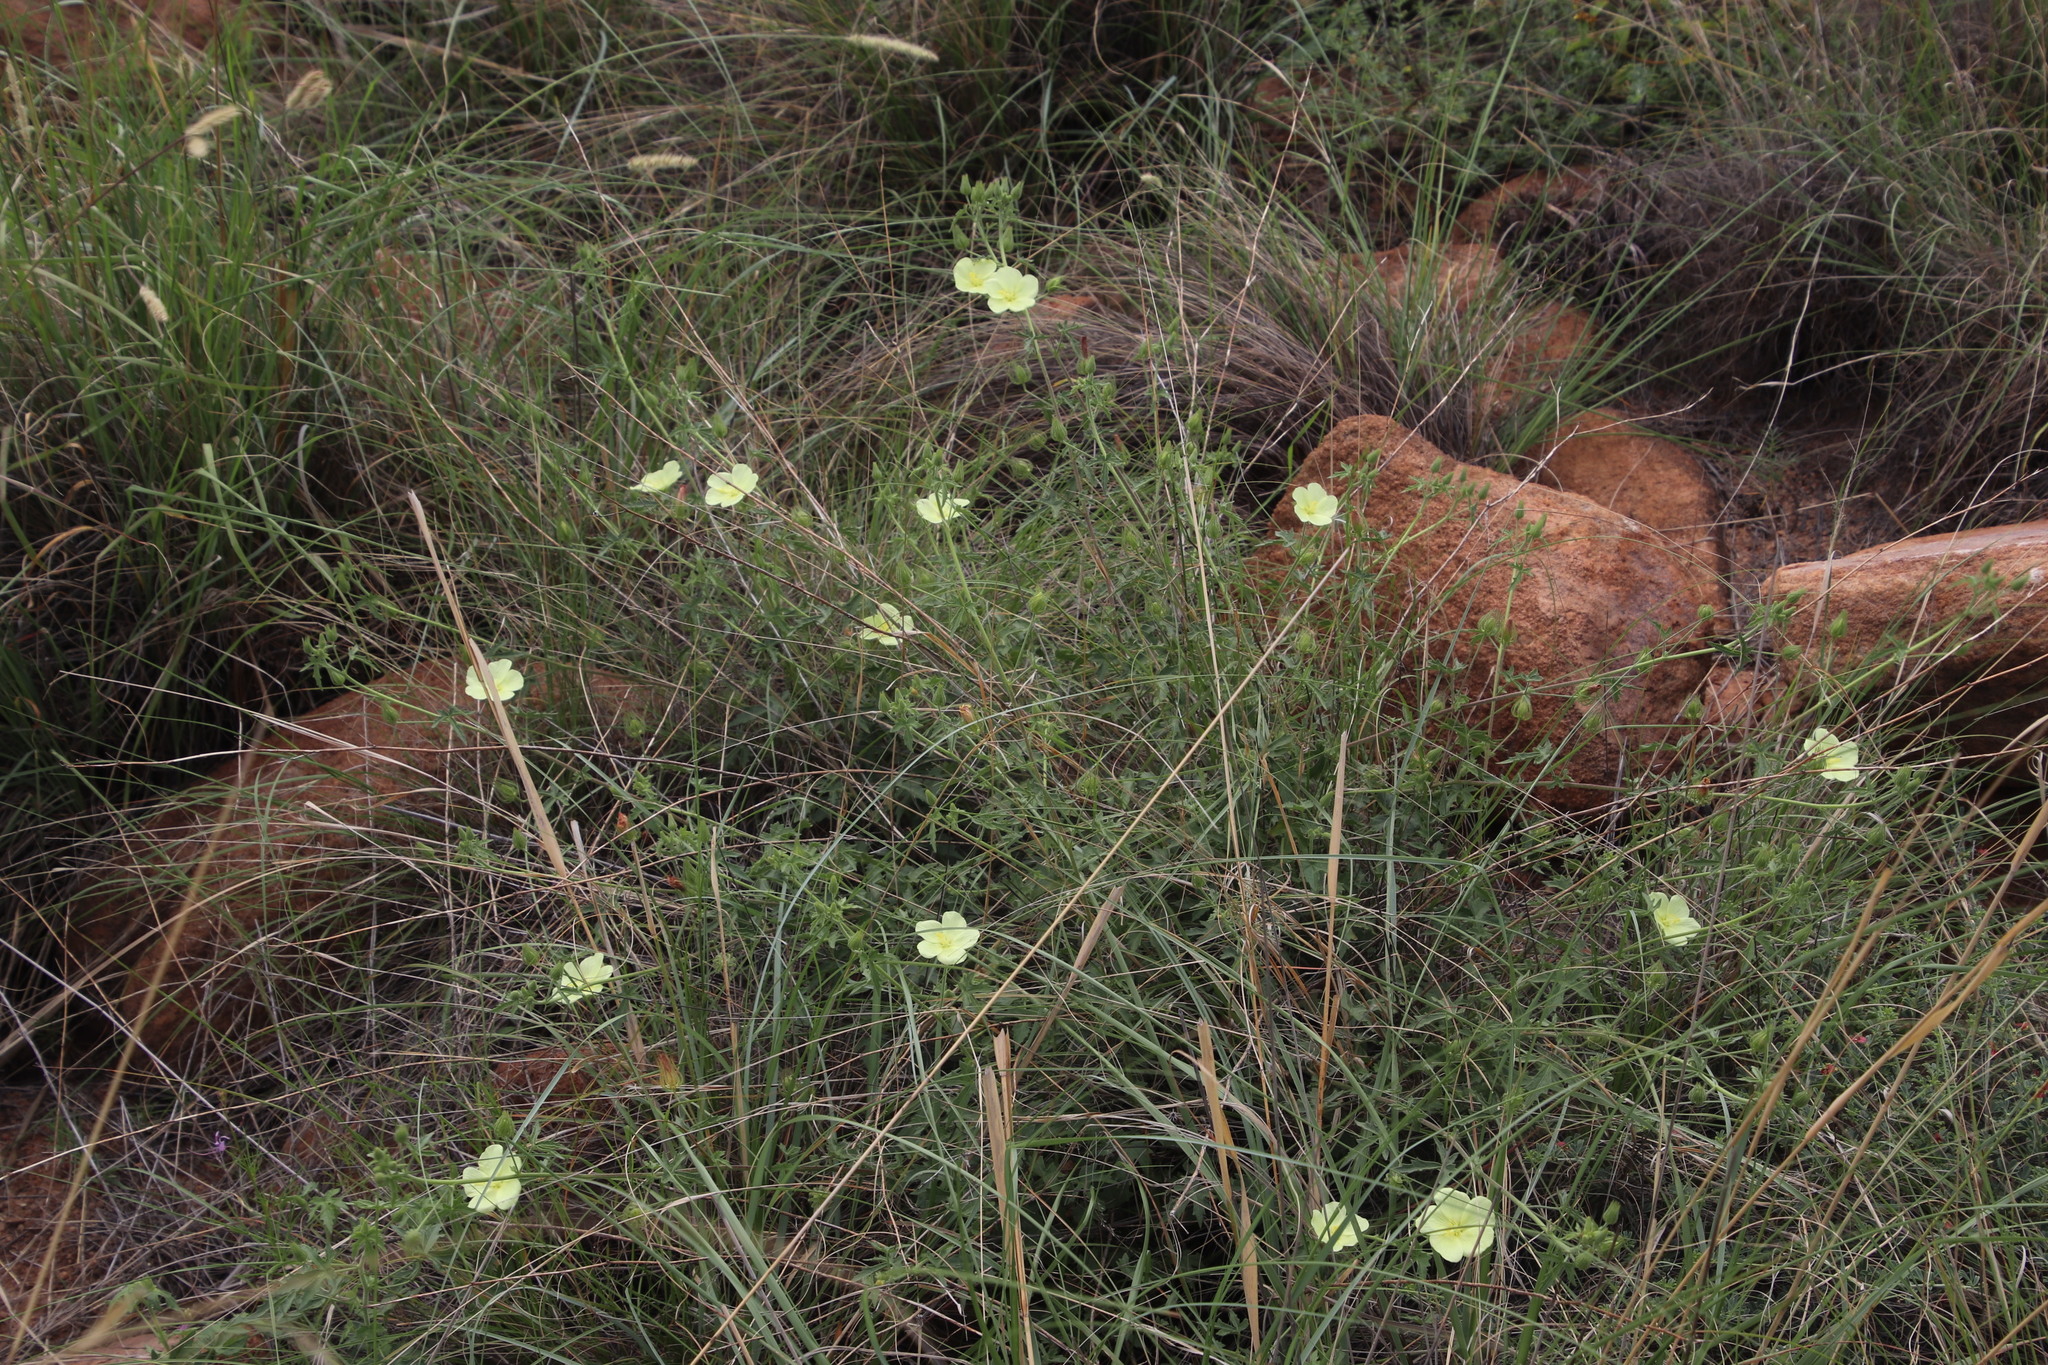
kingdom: Plantae
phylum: Tracheophyta
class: Magnoliopsida
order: Malvales
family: Malvaceae
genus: Pavonia
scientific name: Pavonia transvaalensis
